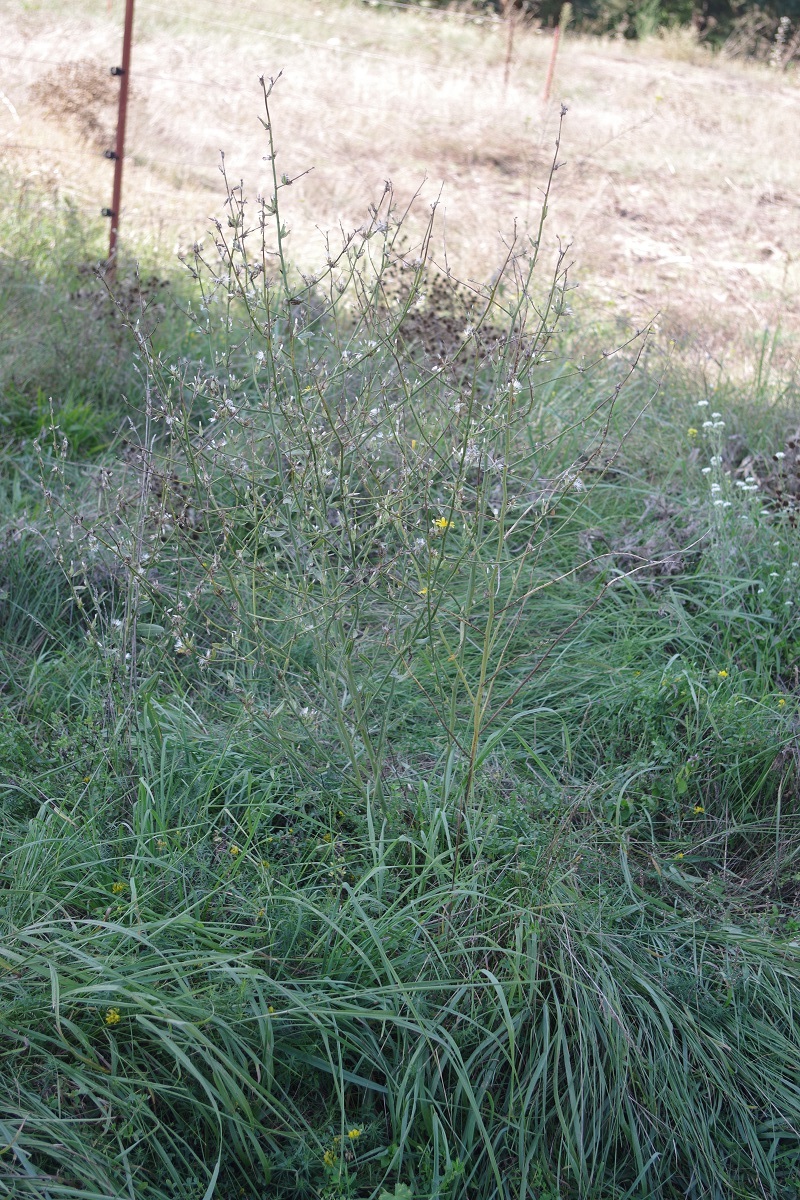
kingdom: Plantae
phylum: Tracheophyta
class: Magnoliopsida
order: Asterales
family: Asteraceae
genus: Chondrilla
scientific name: Chondrilla juncea
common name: Skeleton weed
